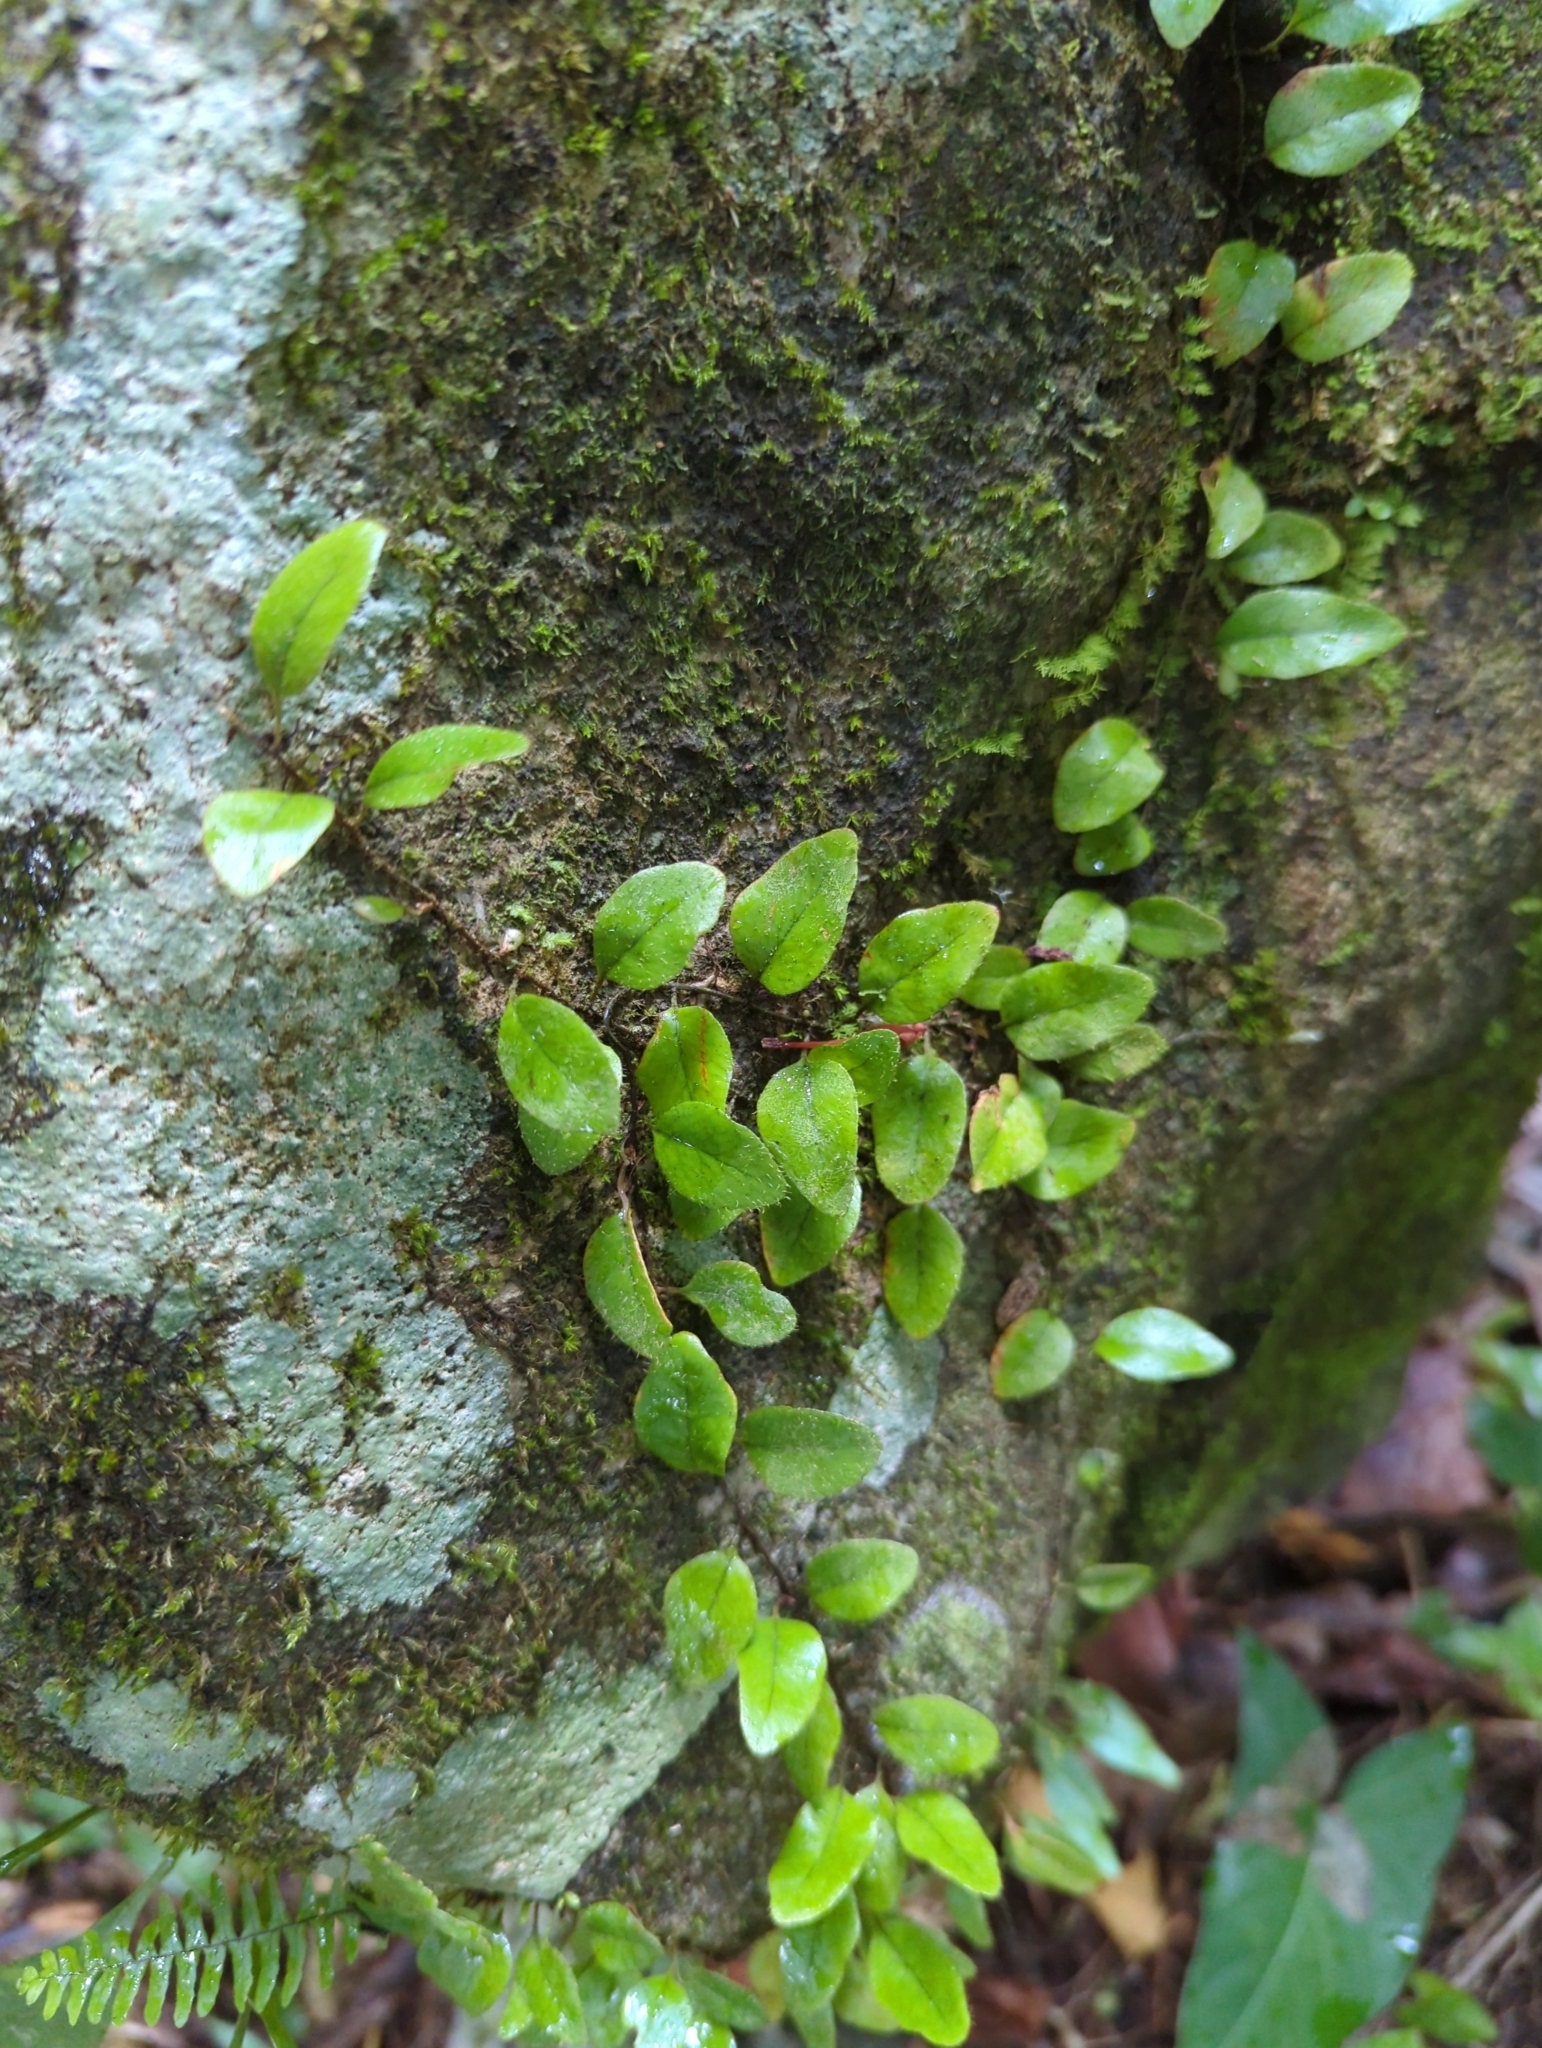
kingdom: Plantae
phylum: Tracheophyta
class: Polypodiopsida
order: Polypodiales
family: Polypodiaceae
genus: Microgramma
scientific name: Microgramma piloselloides
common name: Hairy snakefern
